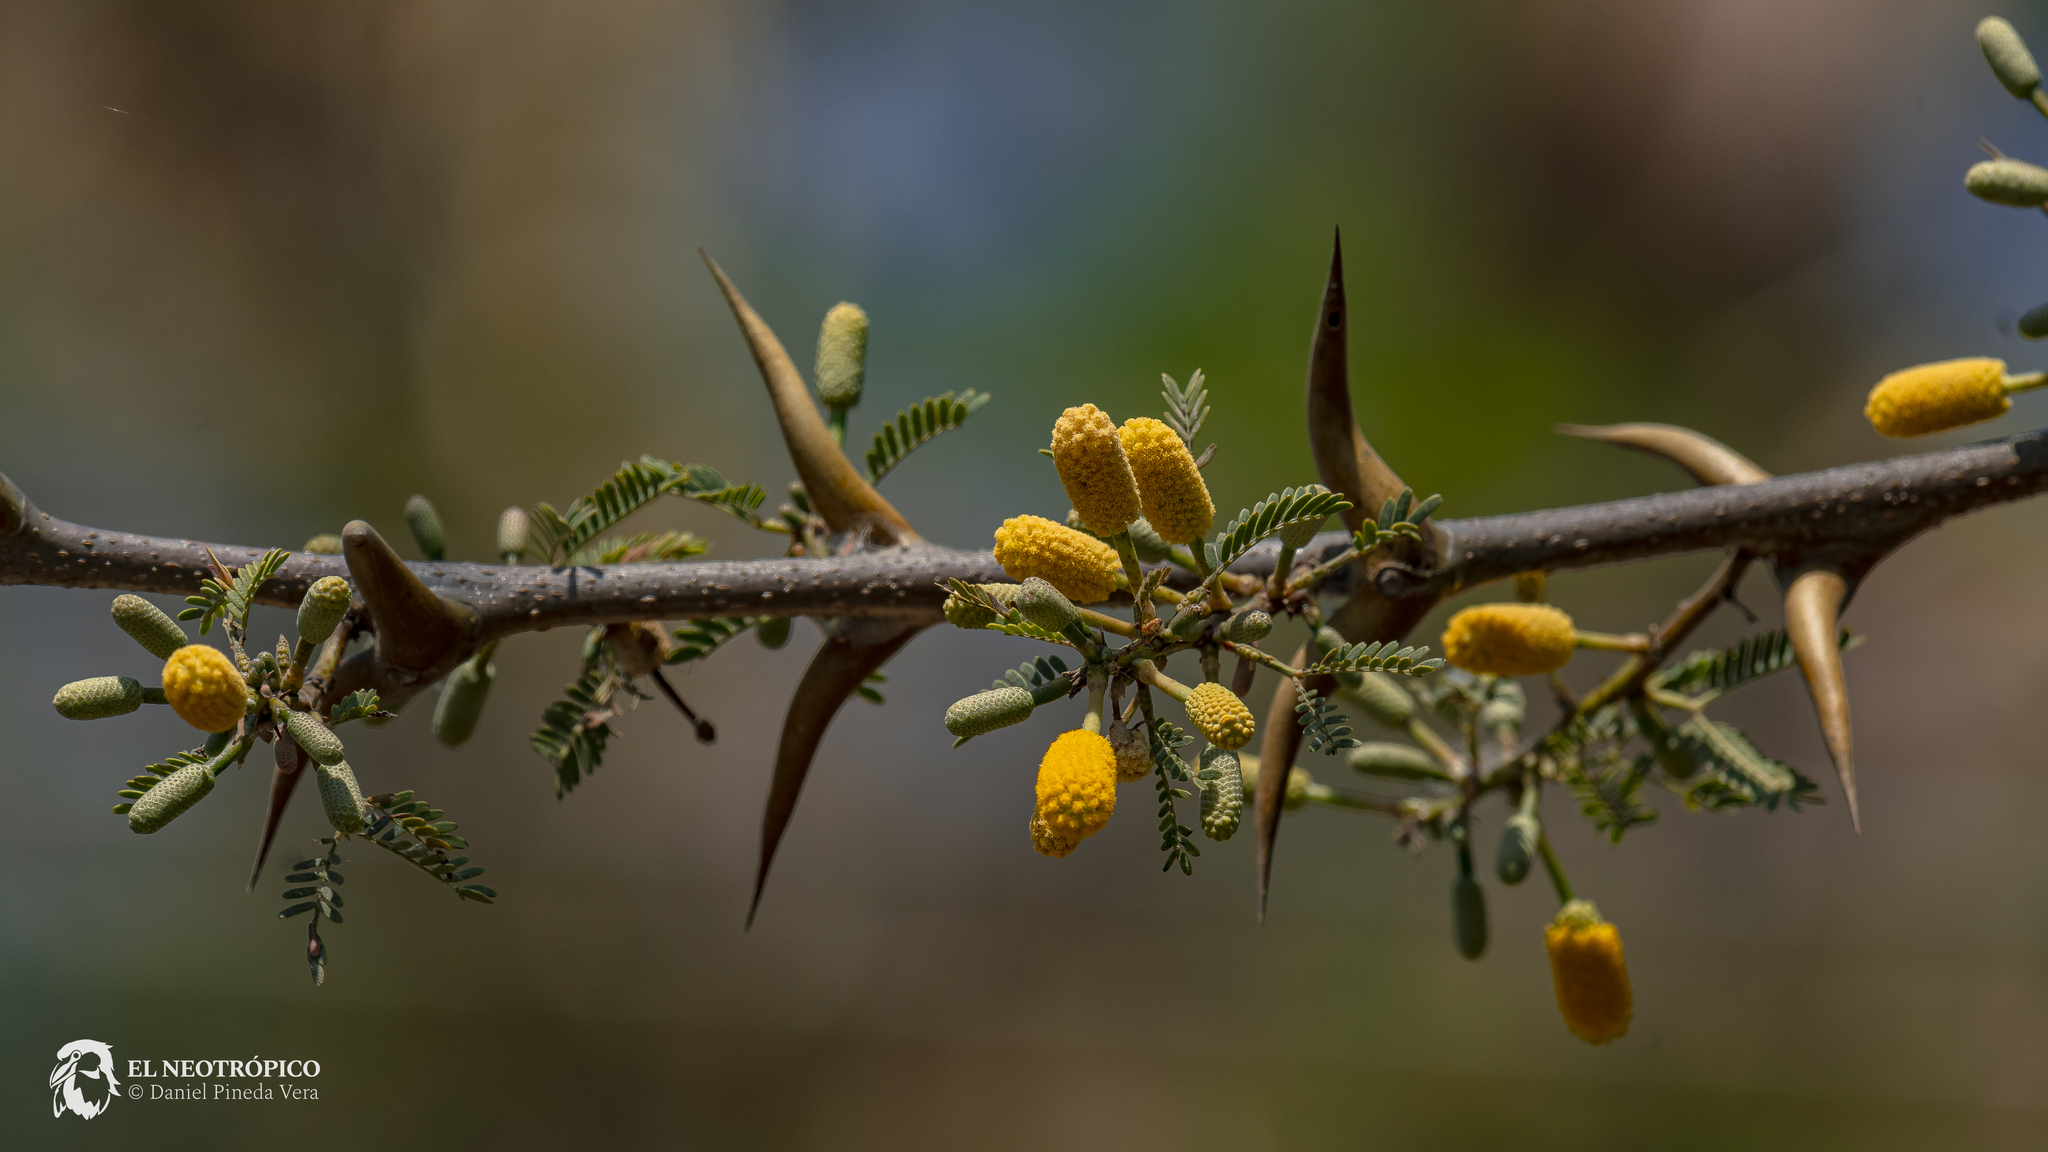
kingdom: Plantae
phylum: Tracheophyta
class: Magnoliopsida
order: Fabales
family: Fabaceae
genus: Vachellia
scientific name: Vachellia cornigera
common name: Bullhorn wattle
